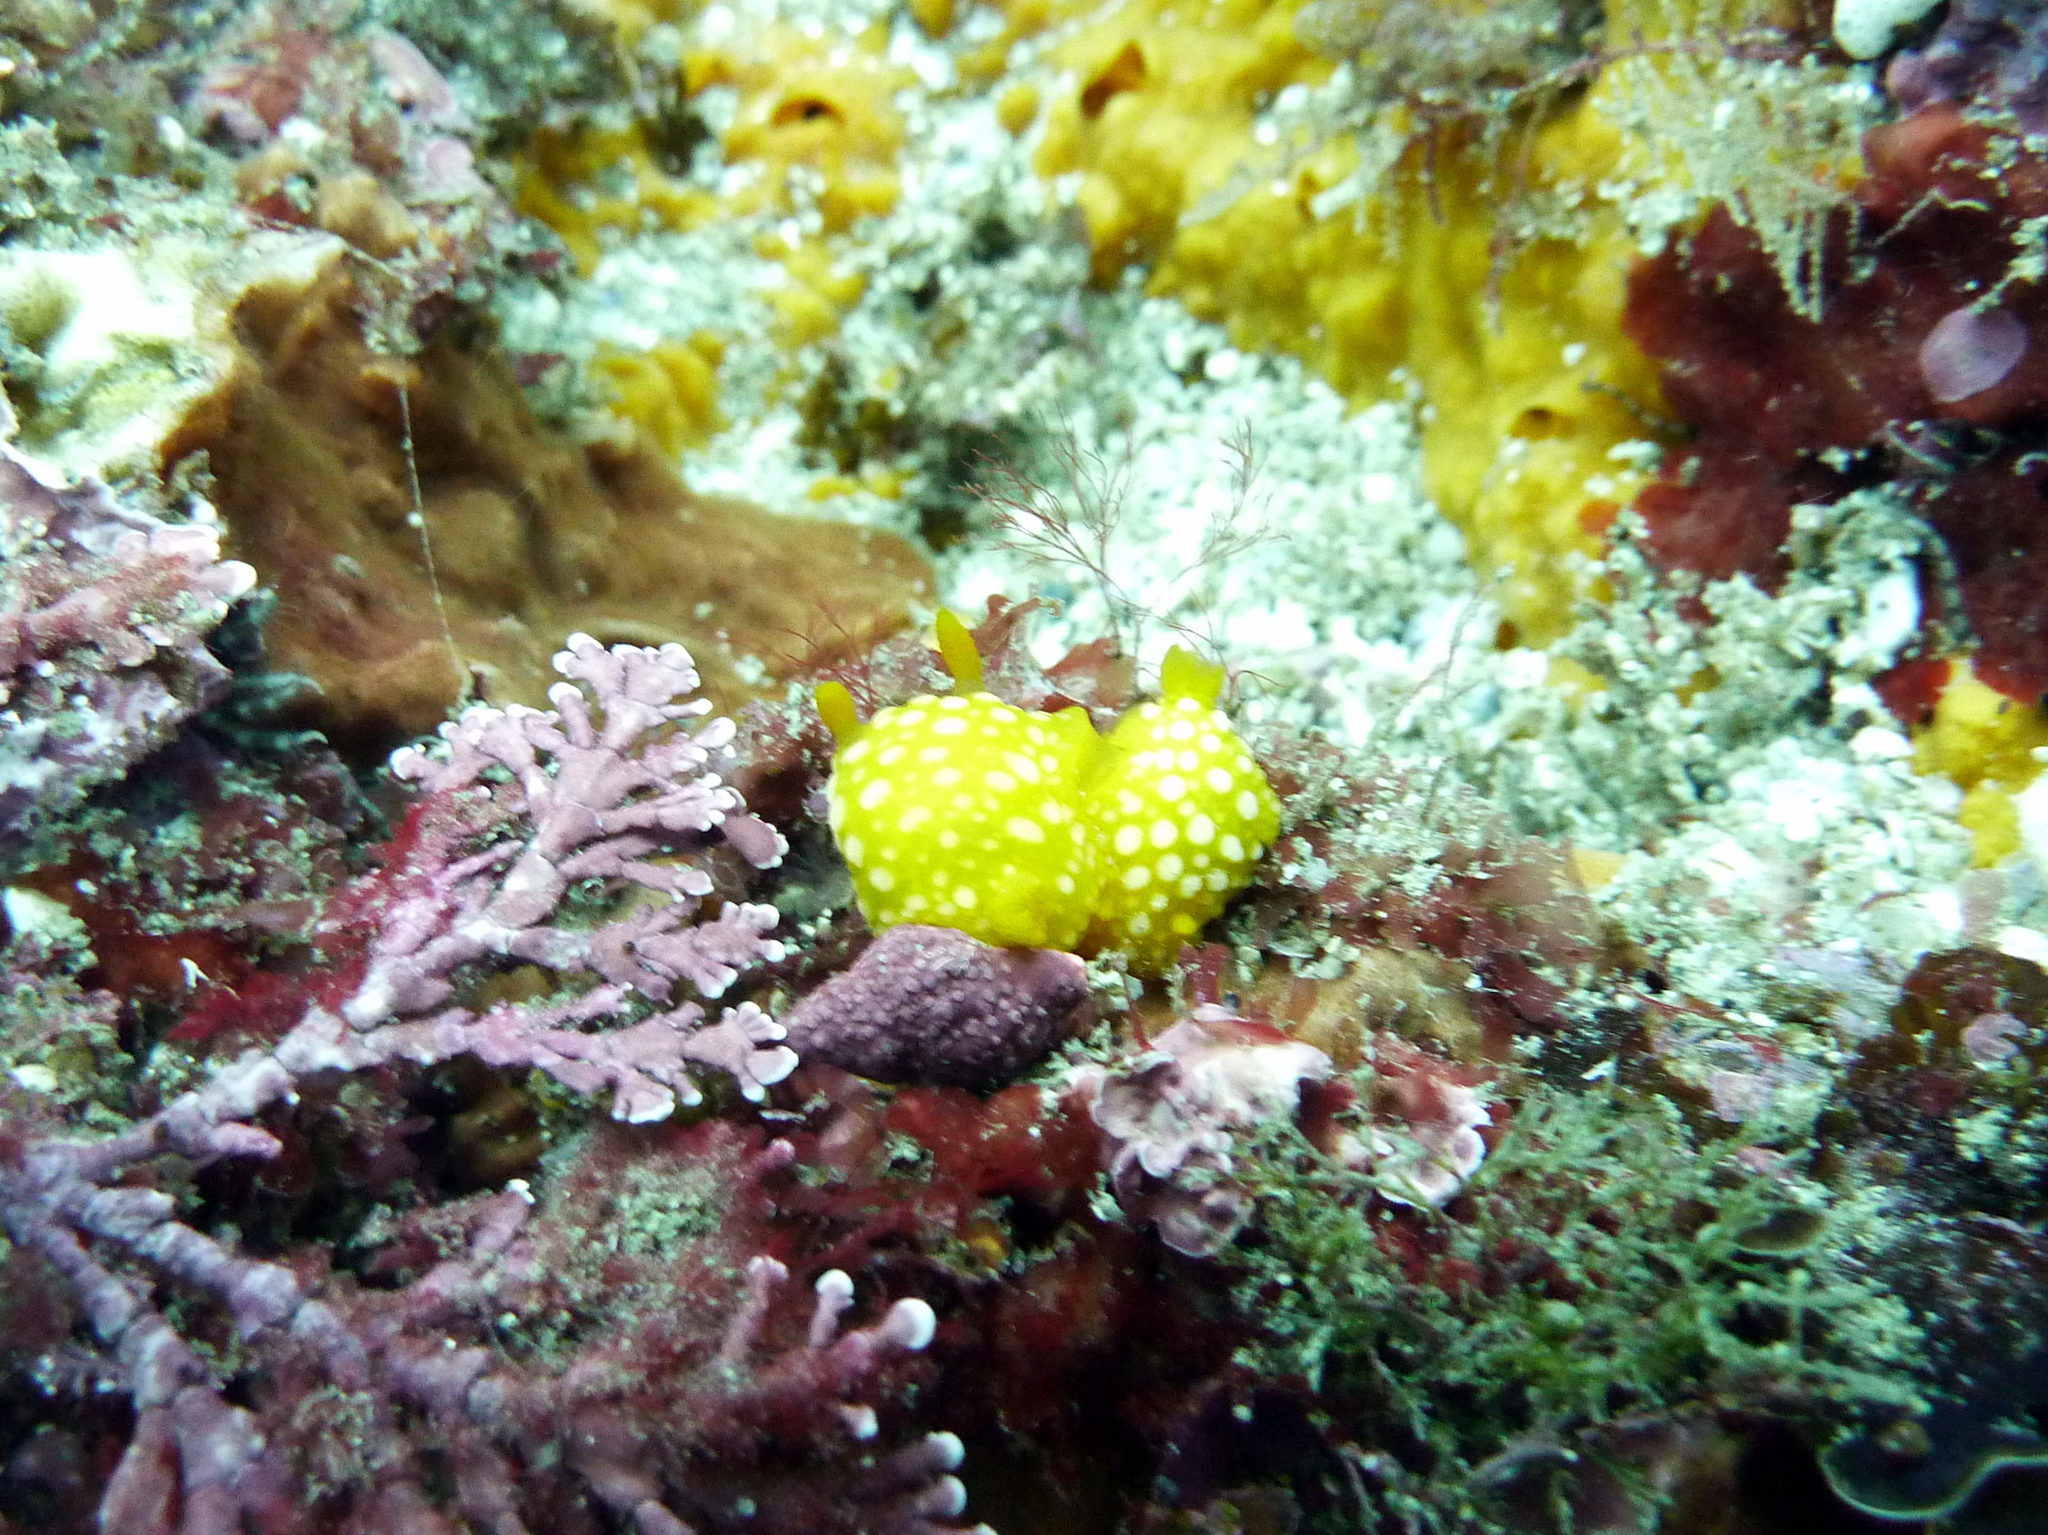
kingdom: Animalia
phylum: Mollusca
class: Gastropoda
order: Nudibranchia
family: Dorididae
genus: Doris
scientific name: Doris chrysoderma
